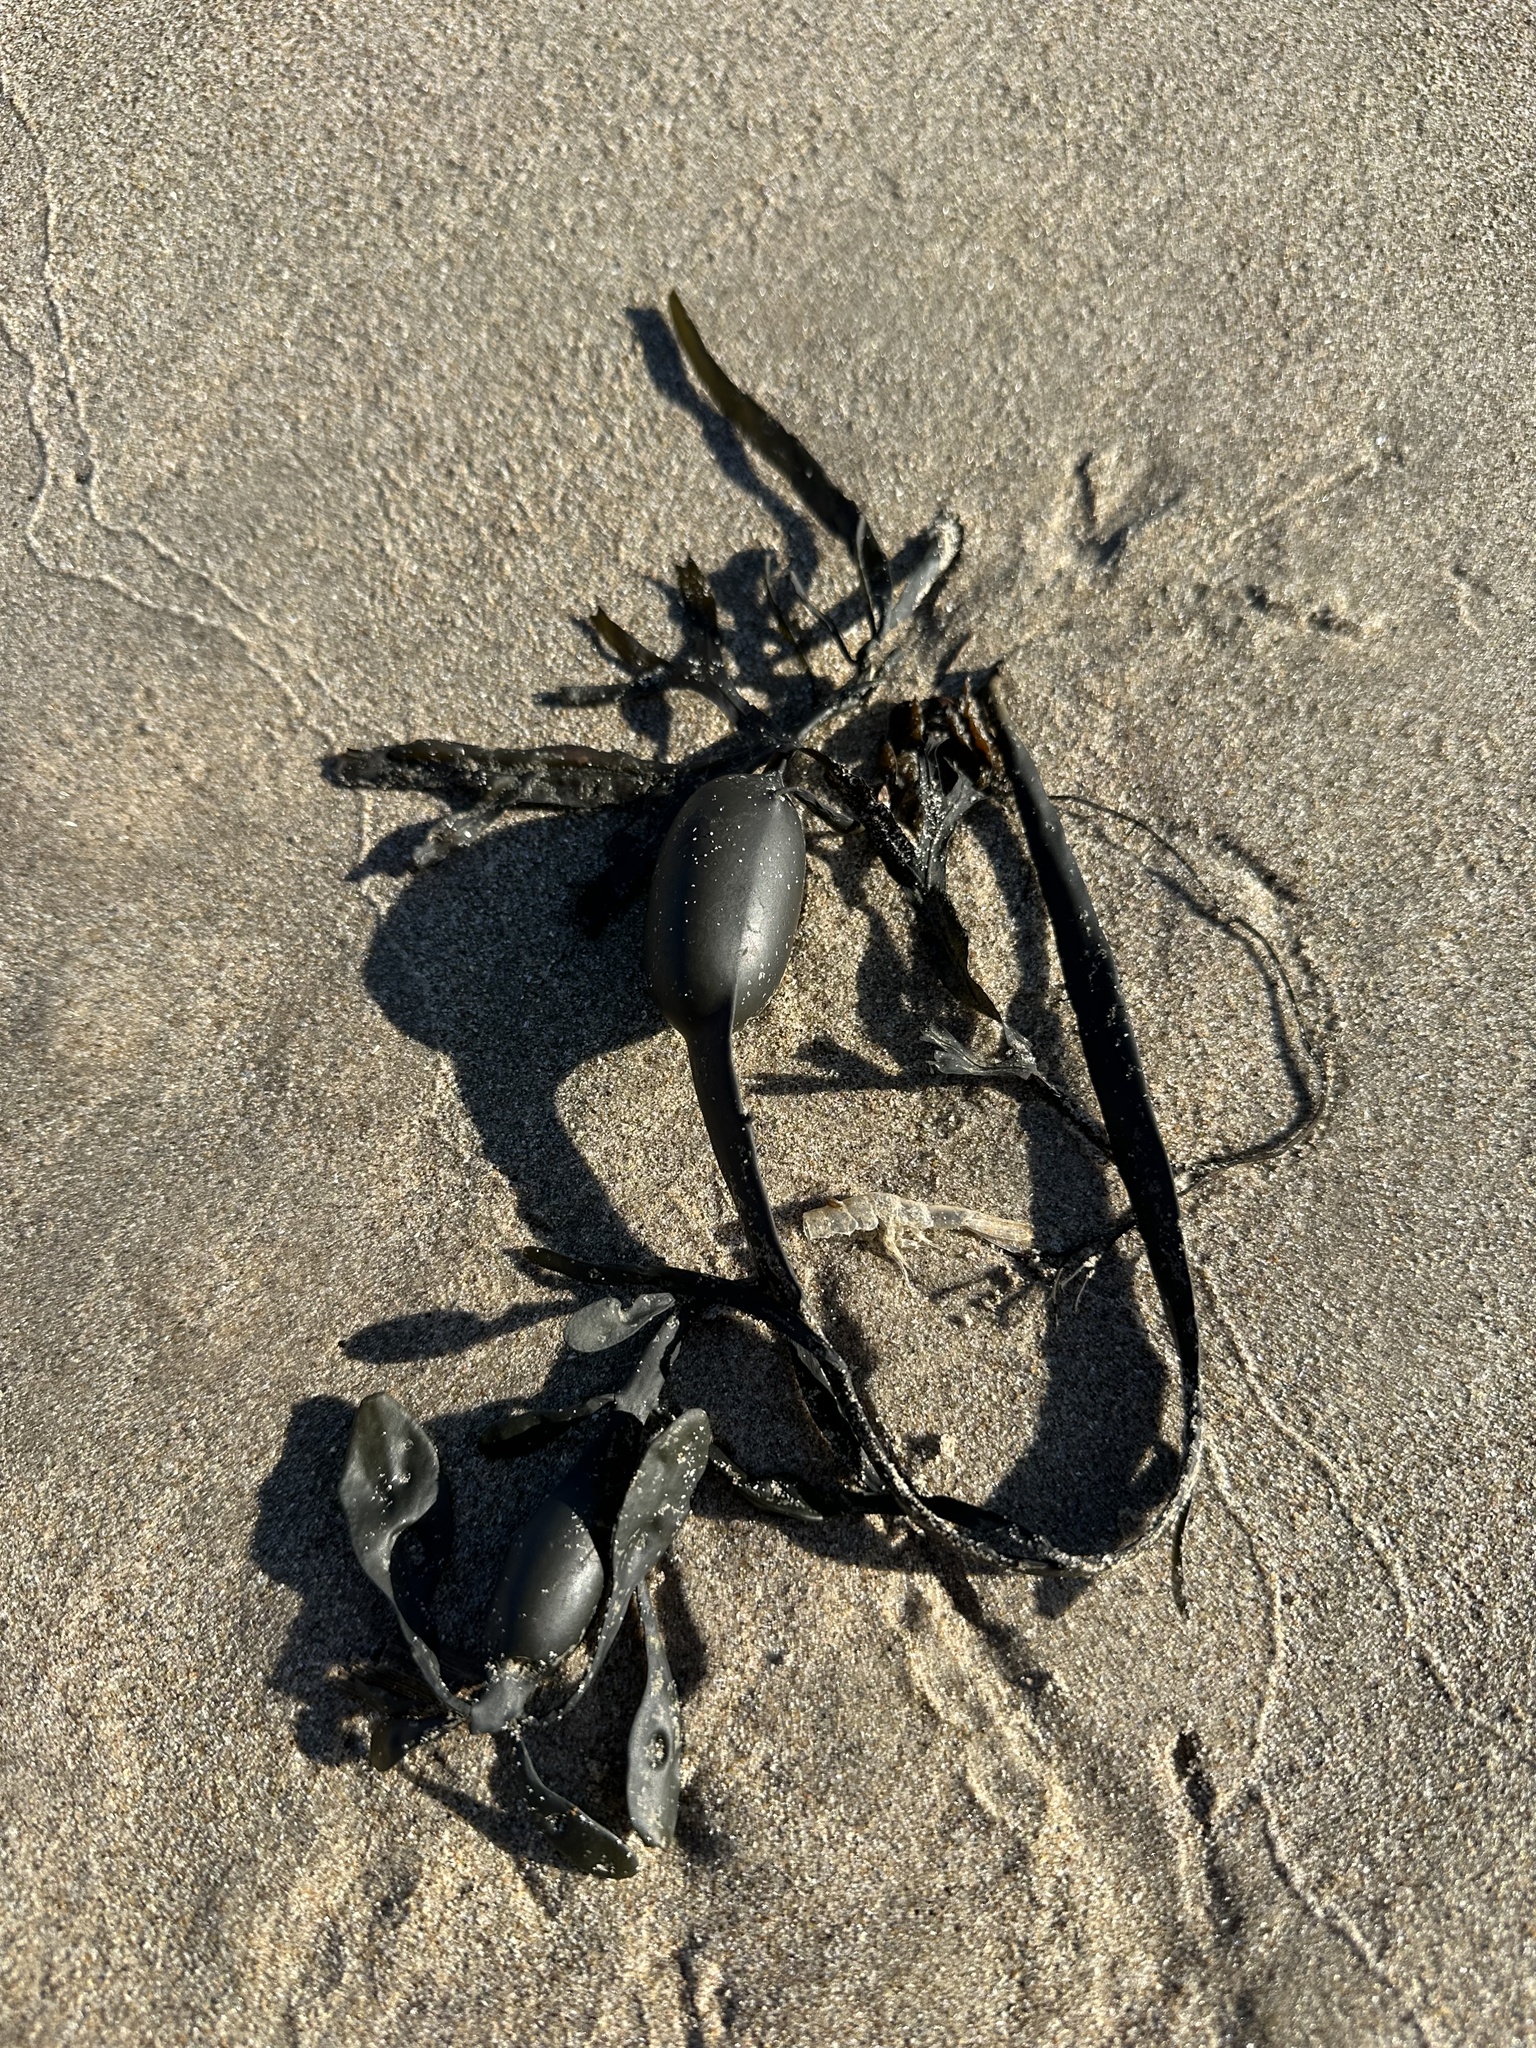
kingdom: Chromista
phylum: Ochrophyta
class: Phaeophyceae
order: Fucales
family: Fucaceae
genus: Ascophyllum
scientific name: Ascophyllum nodosum
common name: Knotted wrack
